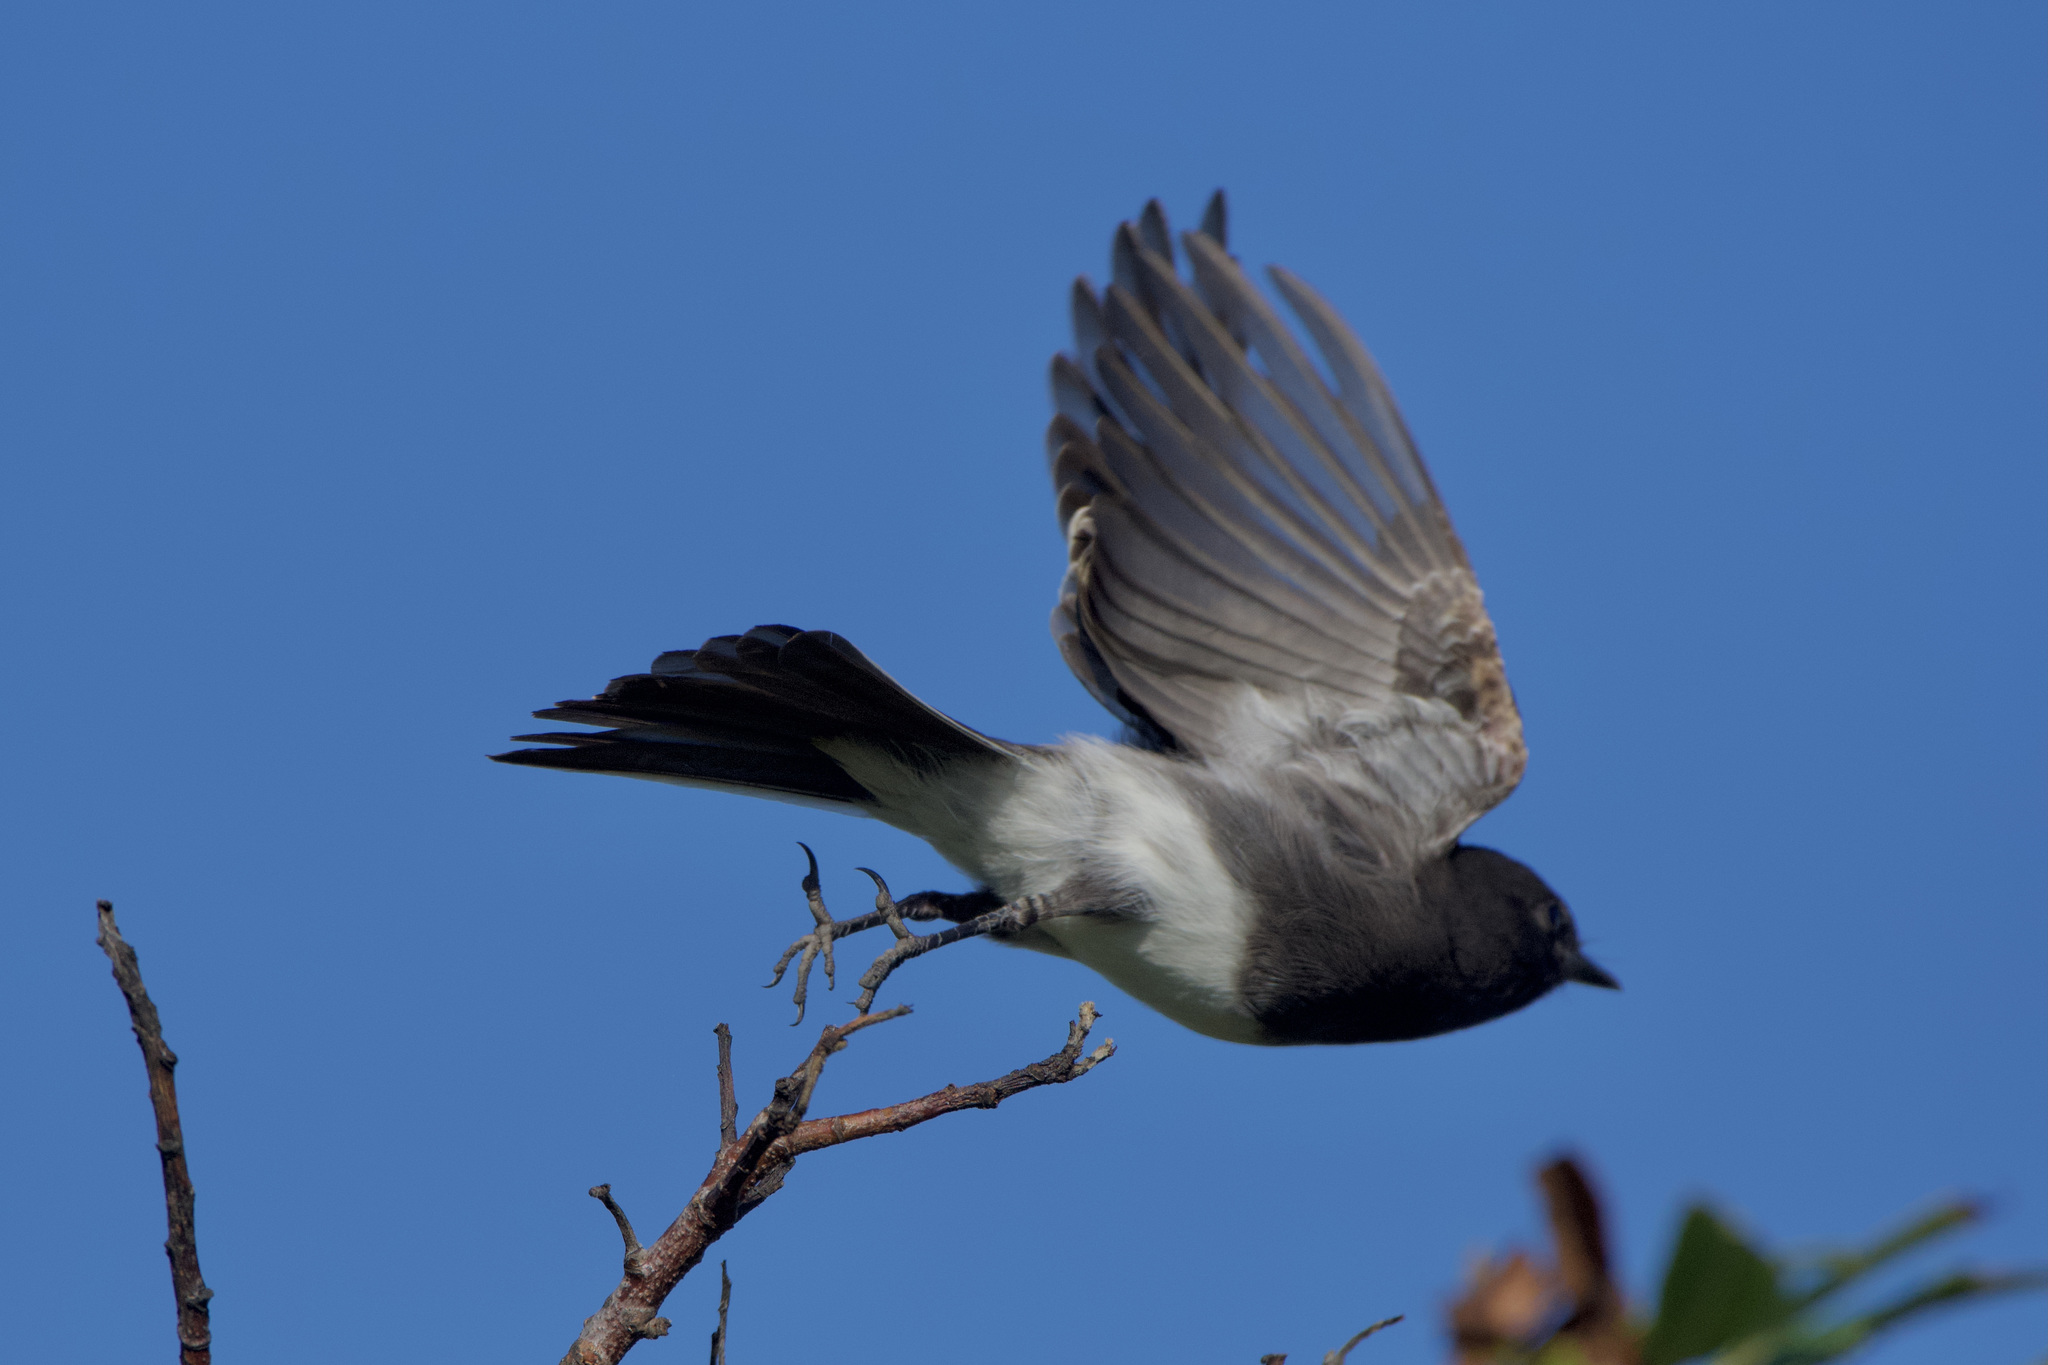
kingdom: Animalia
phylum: Chordata
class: Aves
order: Passeriformes
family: Tyrannidae
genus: Sayornis
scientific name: Sayornis nigricans
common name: Black phoebe
